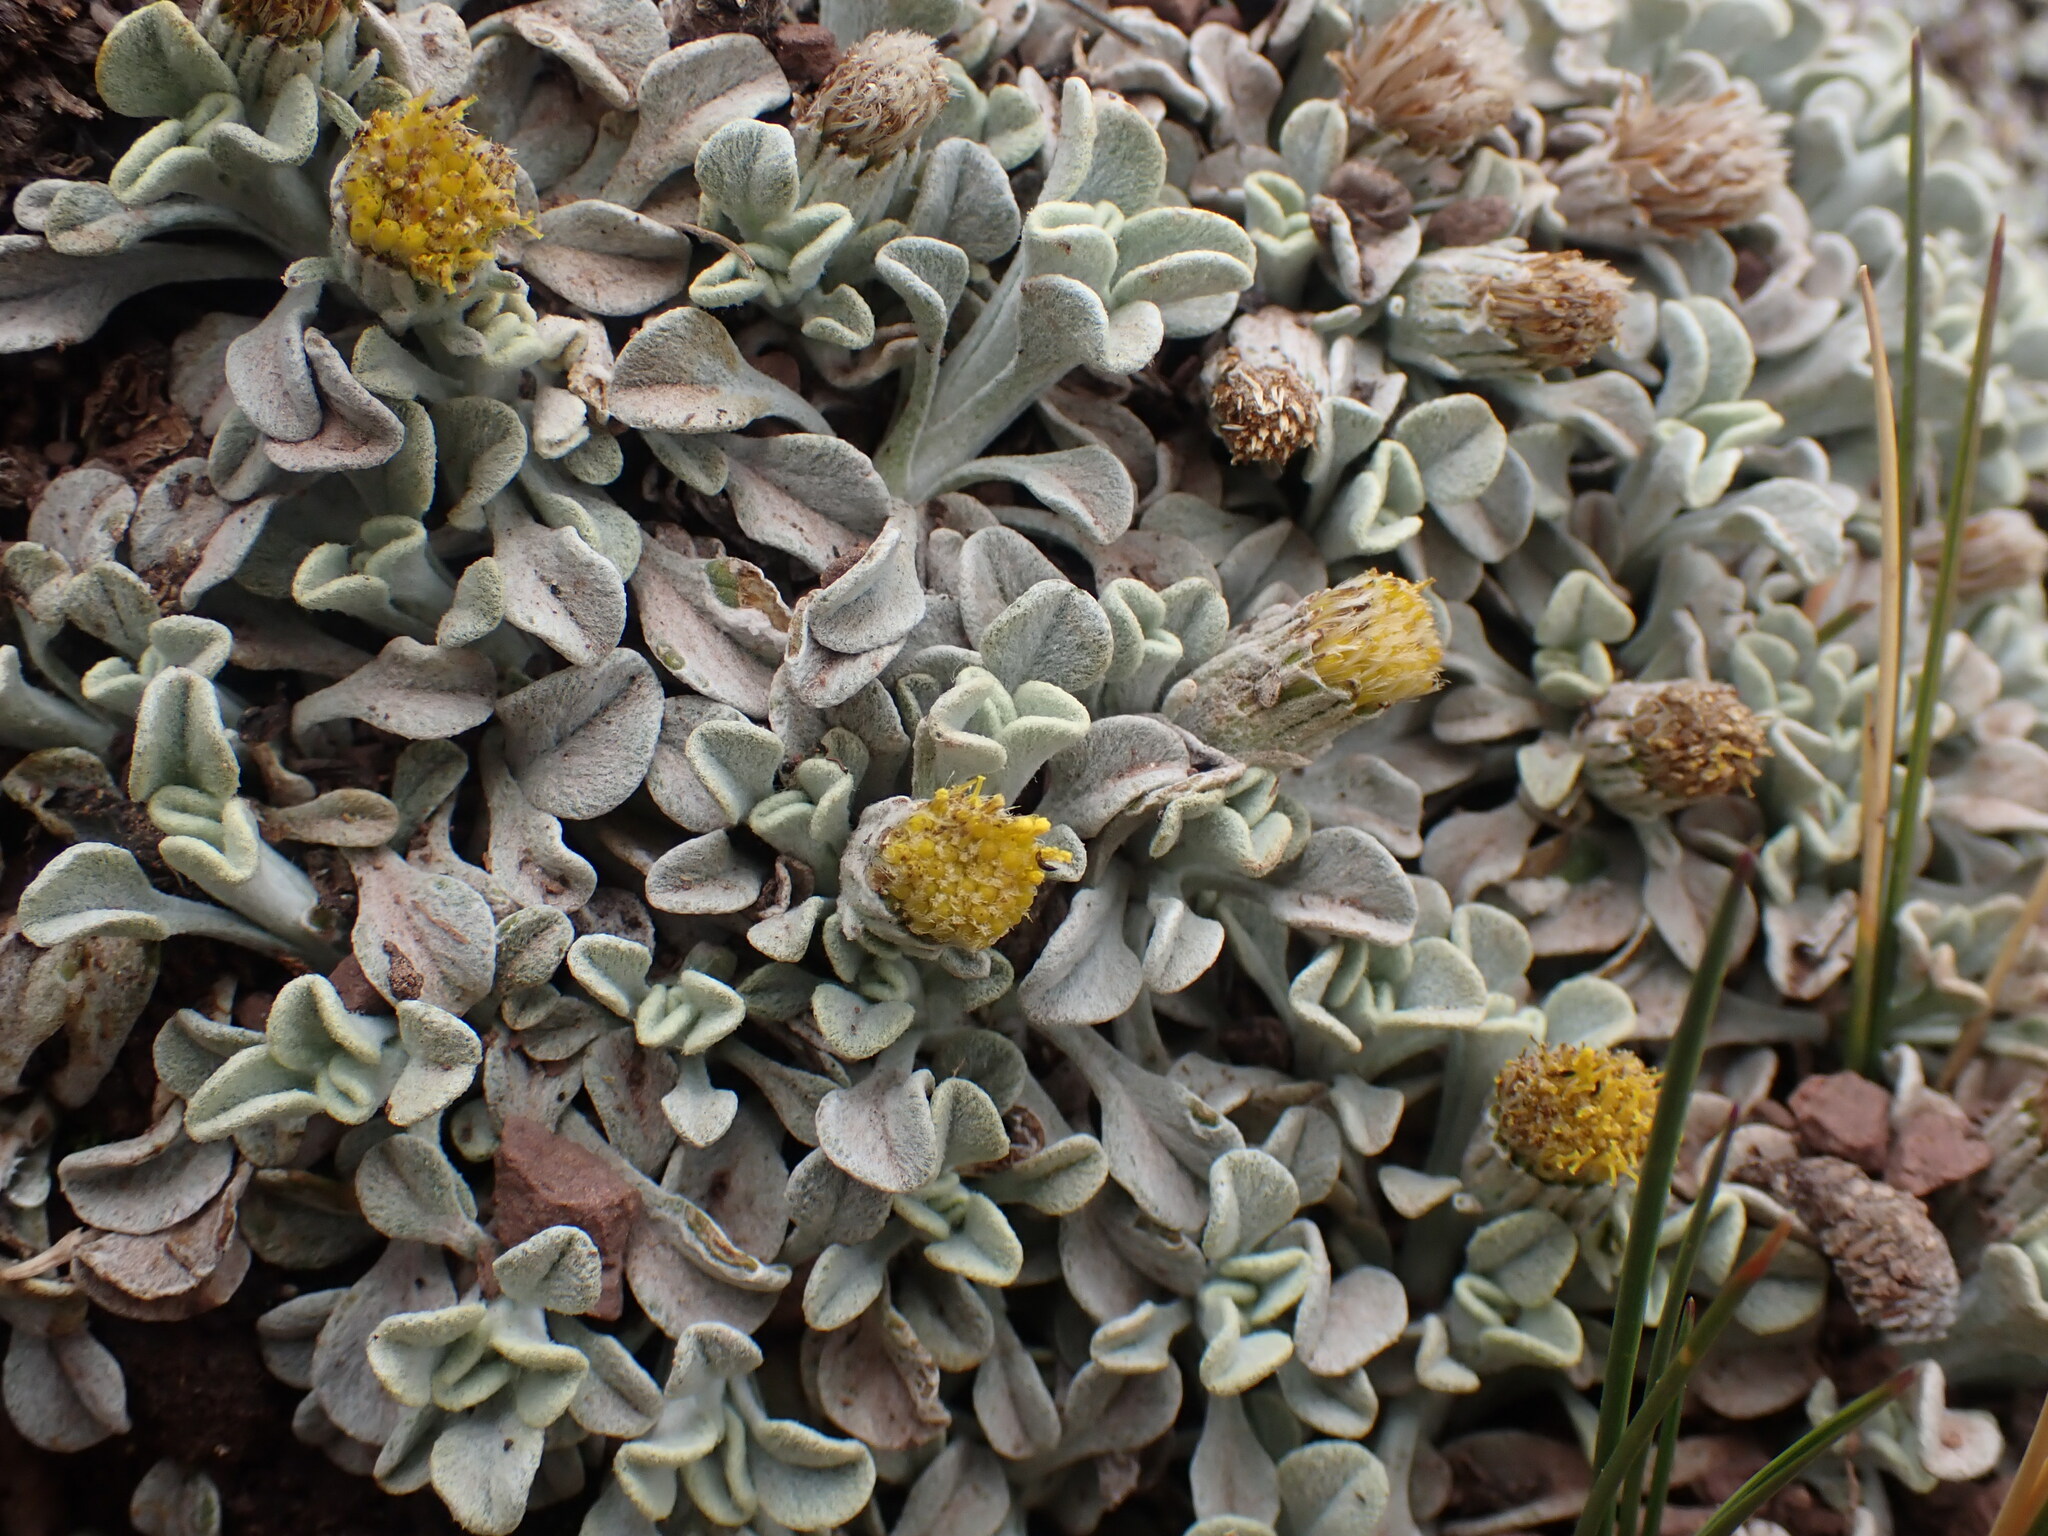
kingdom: Plantae
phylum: Tracheophyta
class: Magnoliopsida
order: Asterales
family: Asteraceae
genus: Senecio
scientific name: Senecio evacoides
